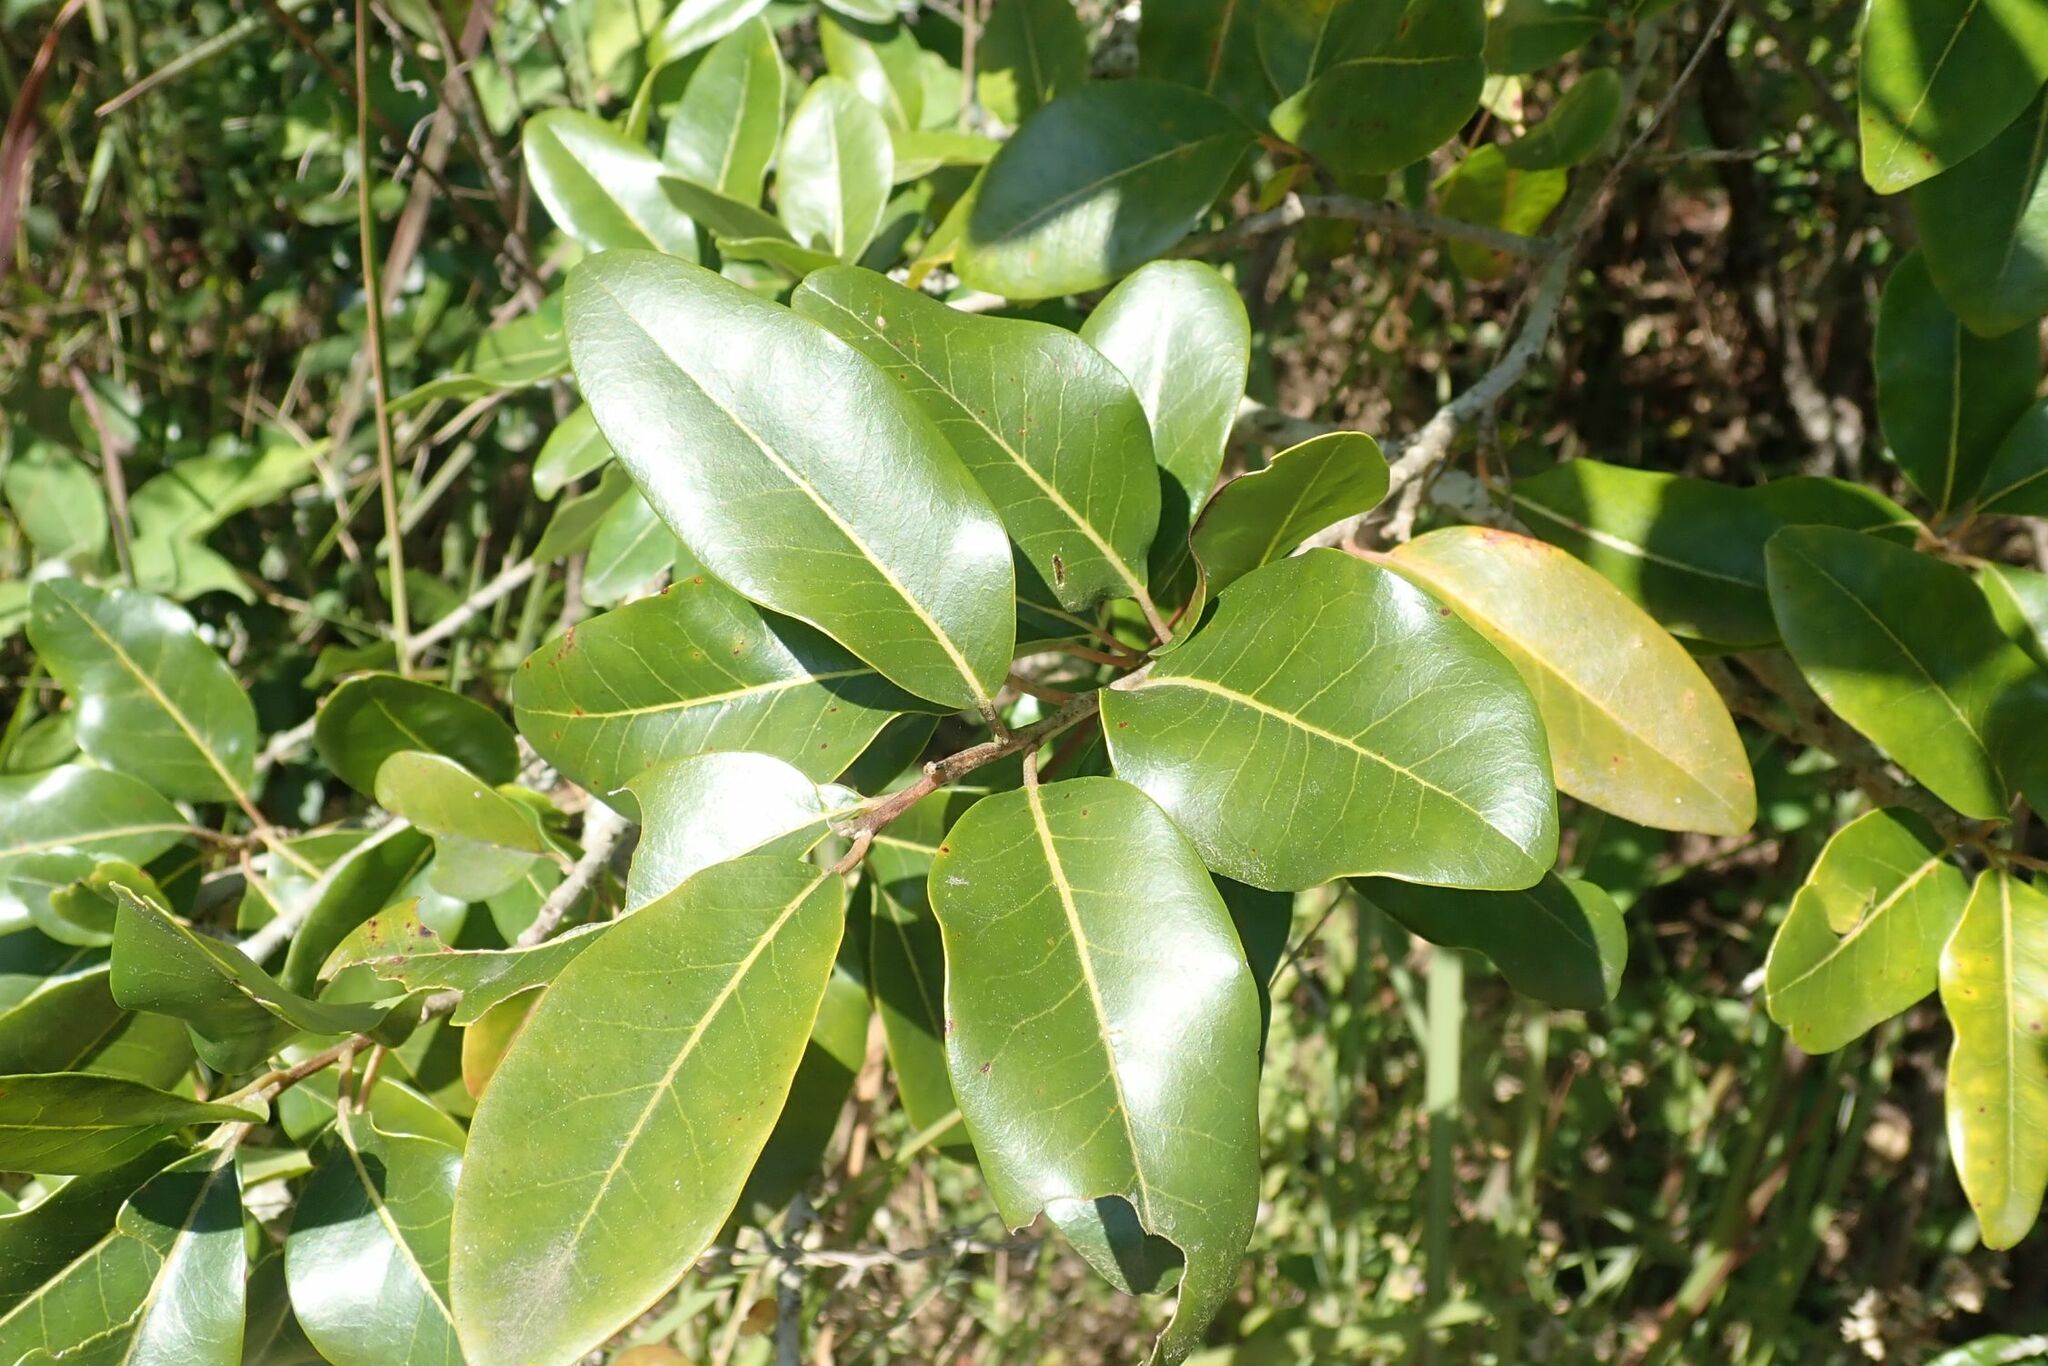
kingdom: Plantae
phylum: Tracheophyta
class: Magnoliopsida
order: Metteniusales
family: Metteniusaceae
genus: Apodytes
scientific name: Apodytes dimidiata
